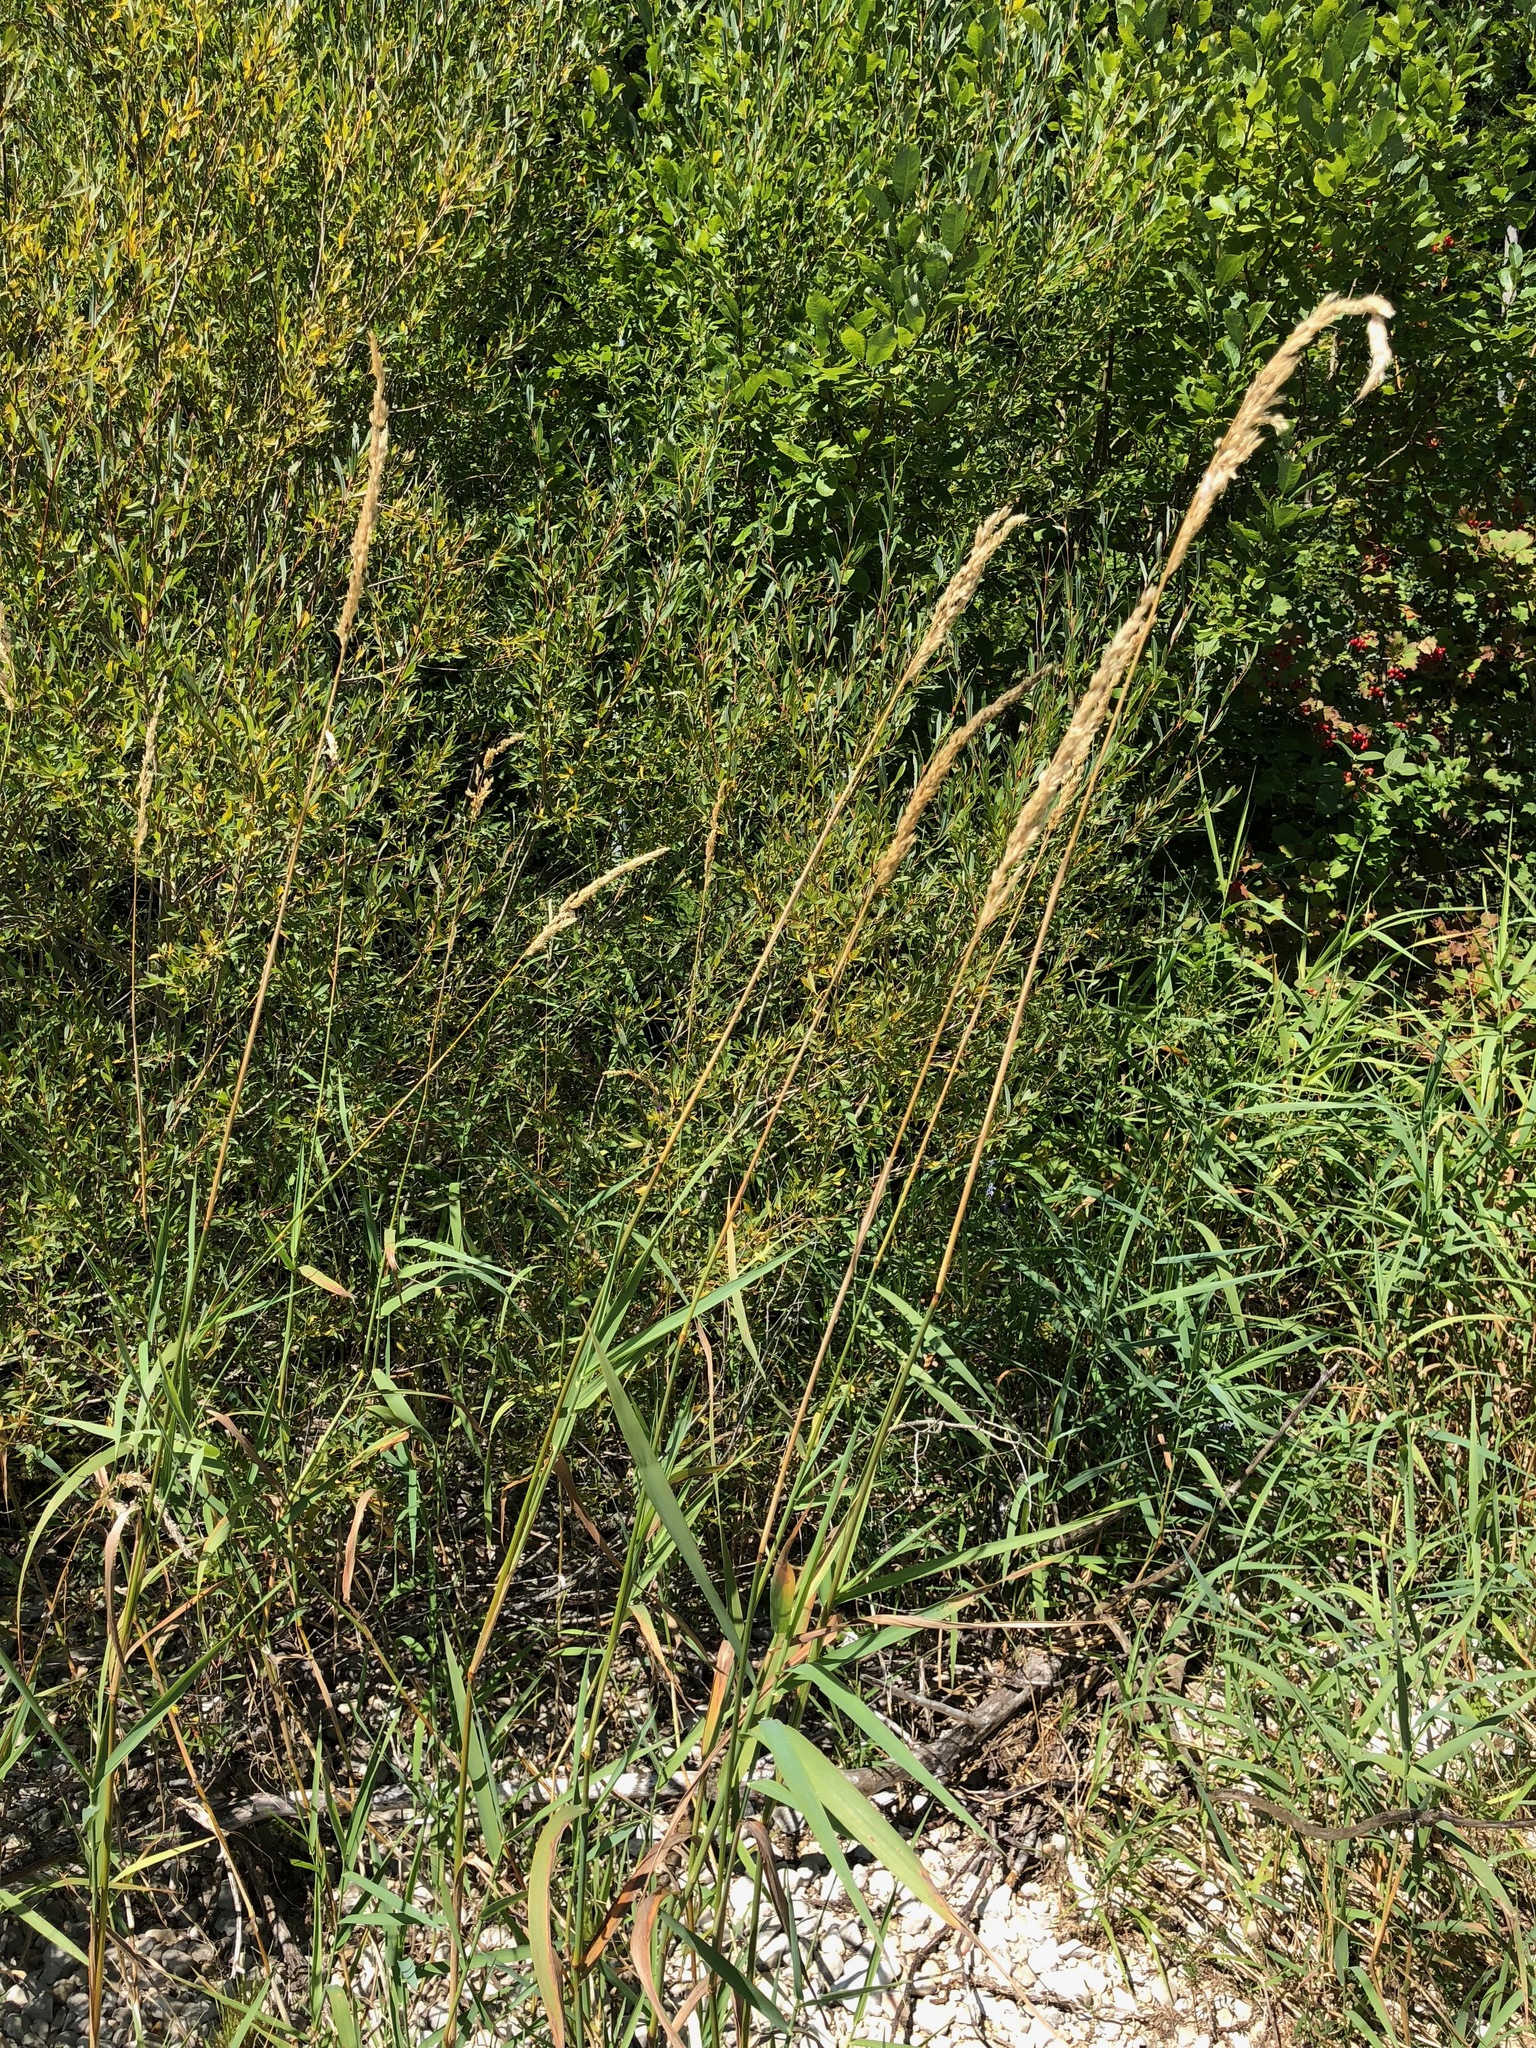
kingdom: Plantae
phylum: Tracheophyta
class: Liliopsida
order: Poales
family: Poaceae
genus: Phalaris
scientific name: Phalaris arundinacea
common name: Reed canary-grass
